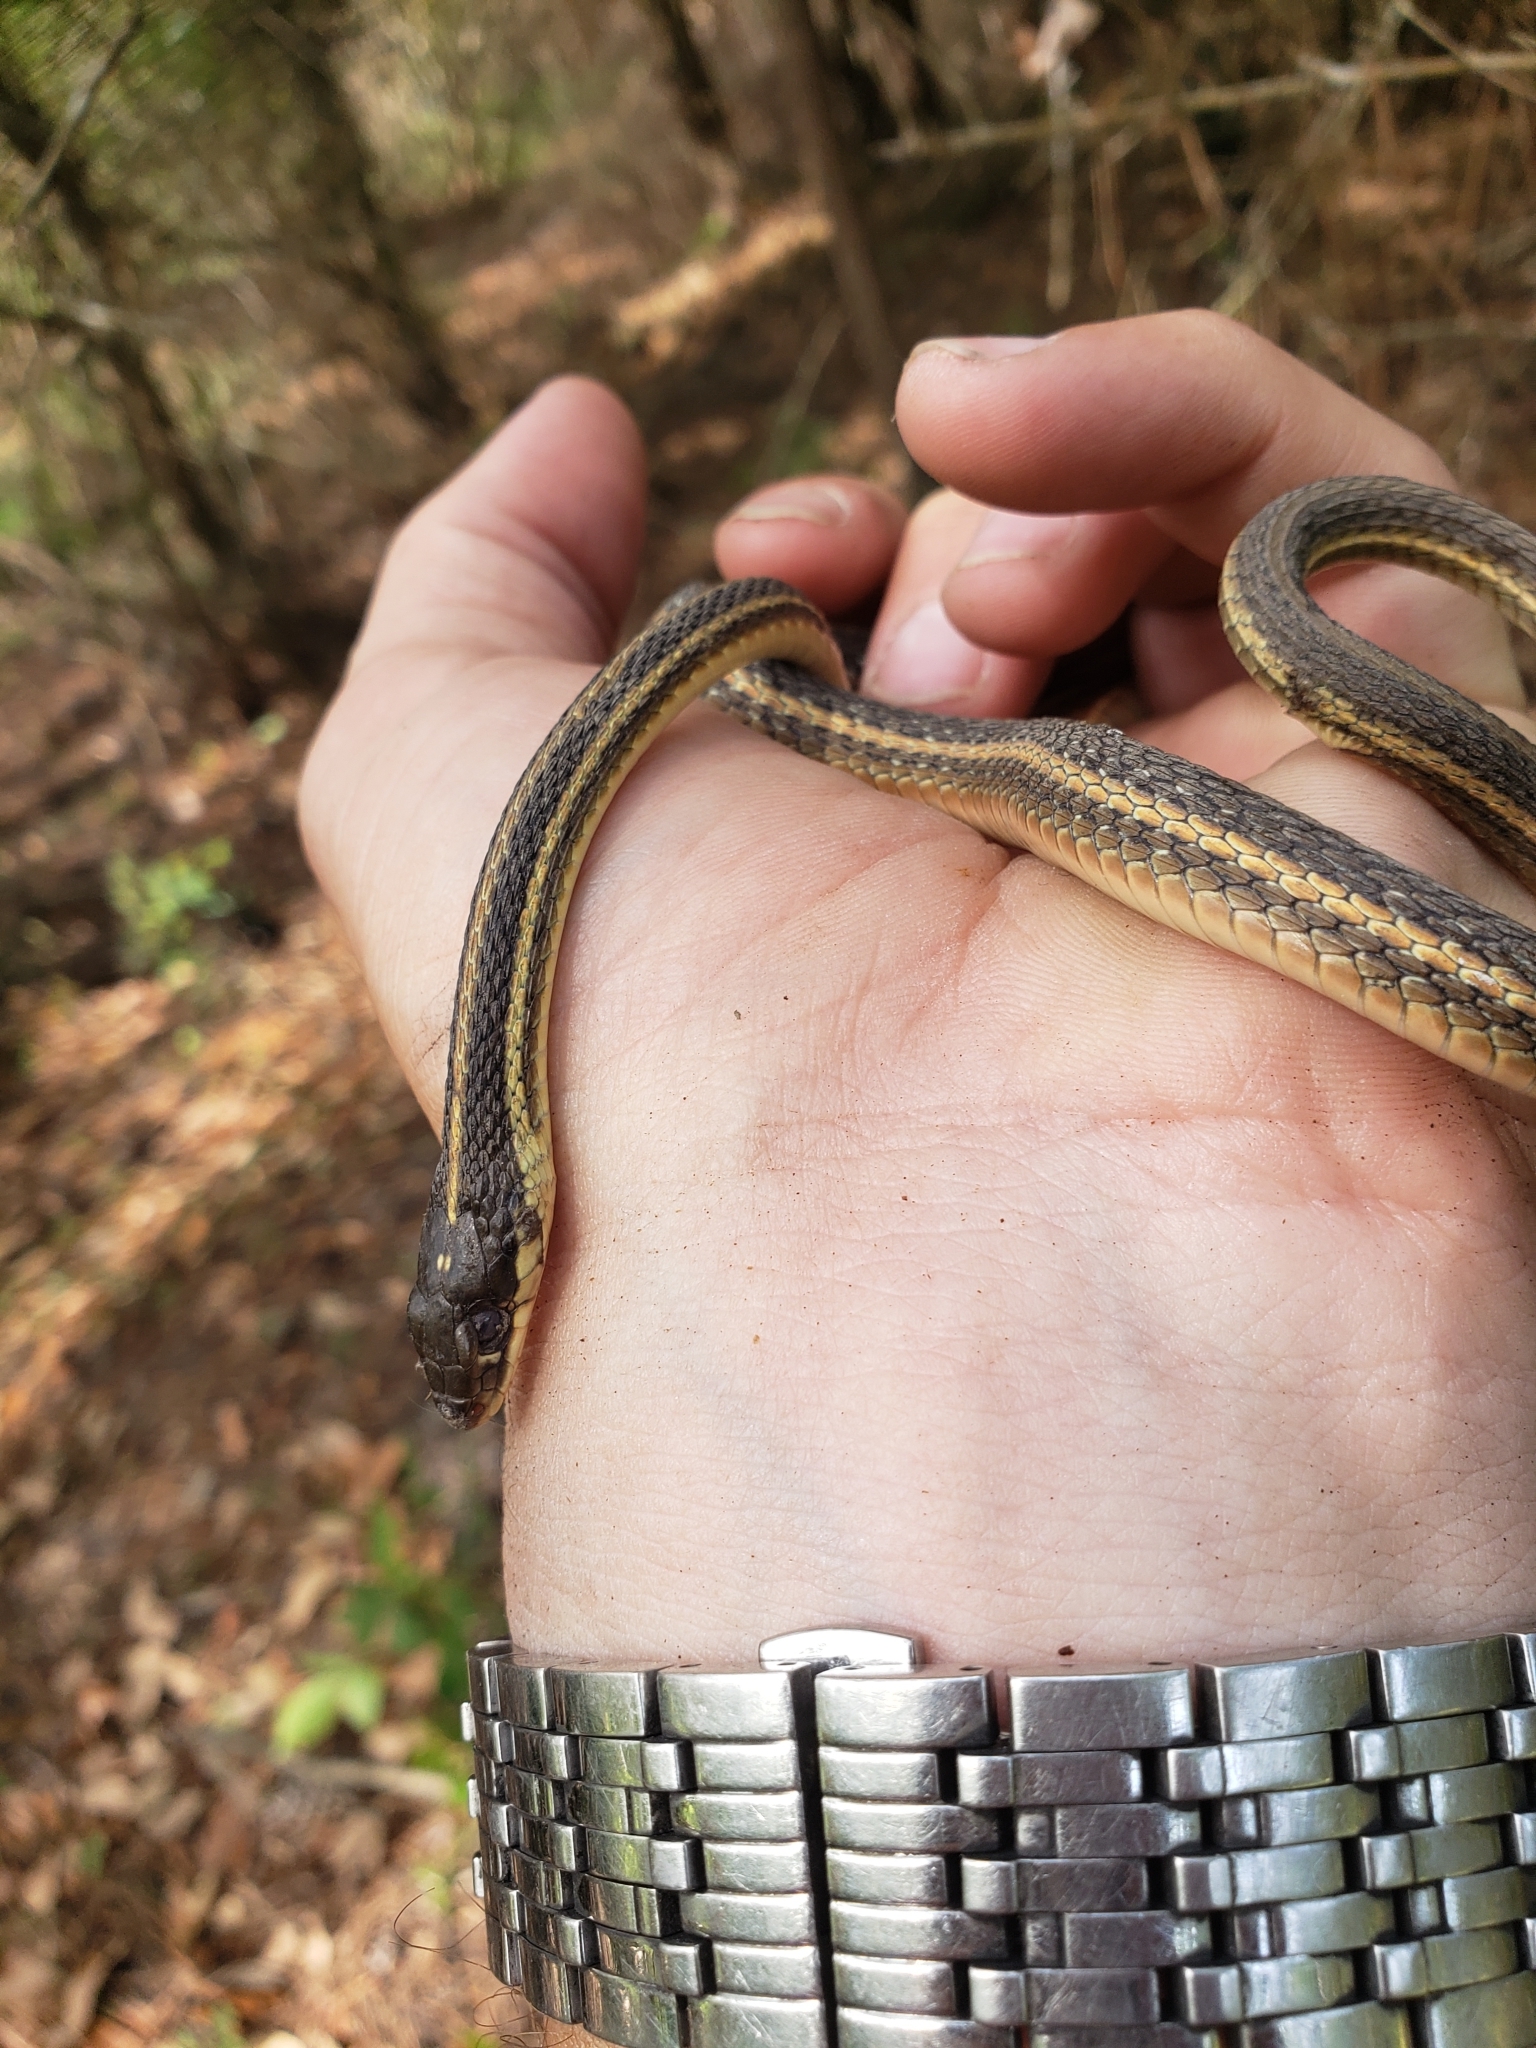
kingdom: Animalia
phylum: Chordata
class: Squamata
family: Colubridae
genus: Thamnophis
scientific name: Thamnophis proximus
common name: Western ribbon snake
